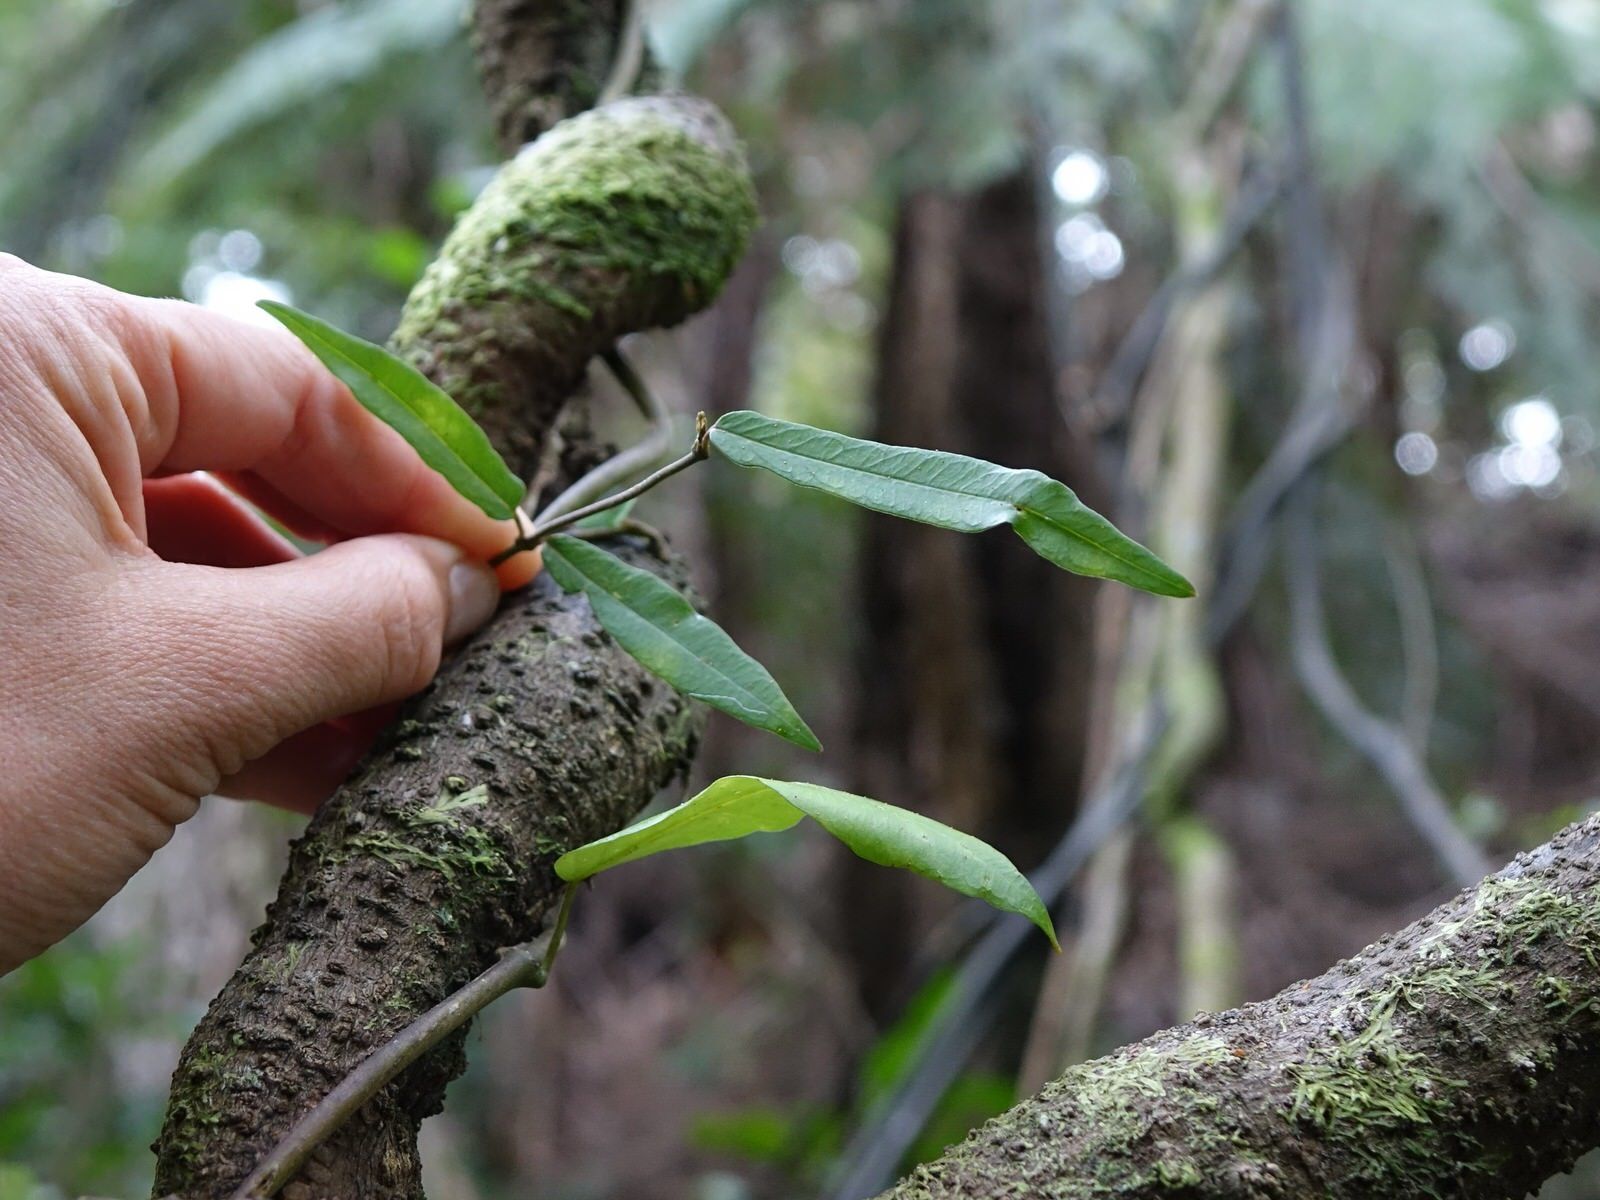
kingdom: Plantae
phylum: Tracheophyta
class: Magnoliopsida
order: Gentianales
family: Apocynaceae
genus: Parsonsia
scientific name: Parsonsia heterophylla
